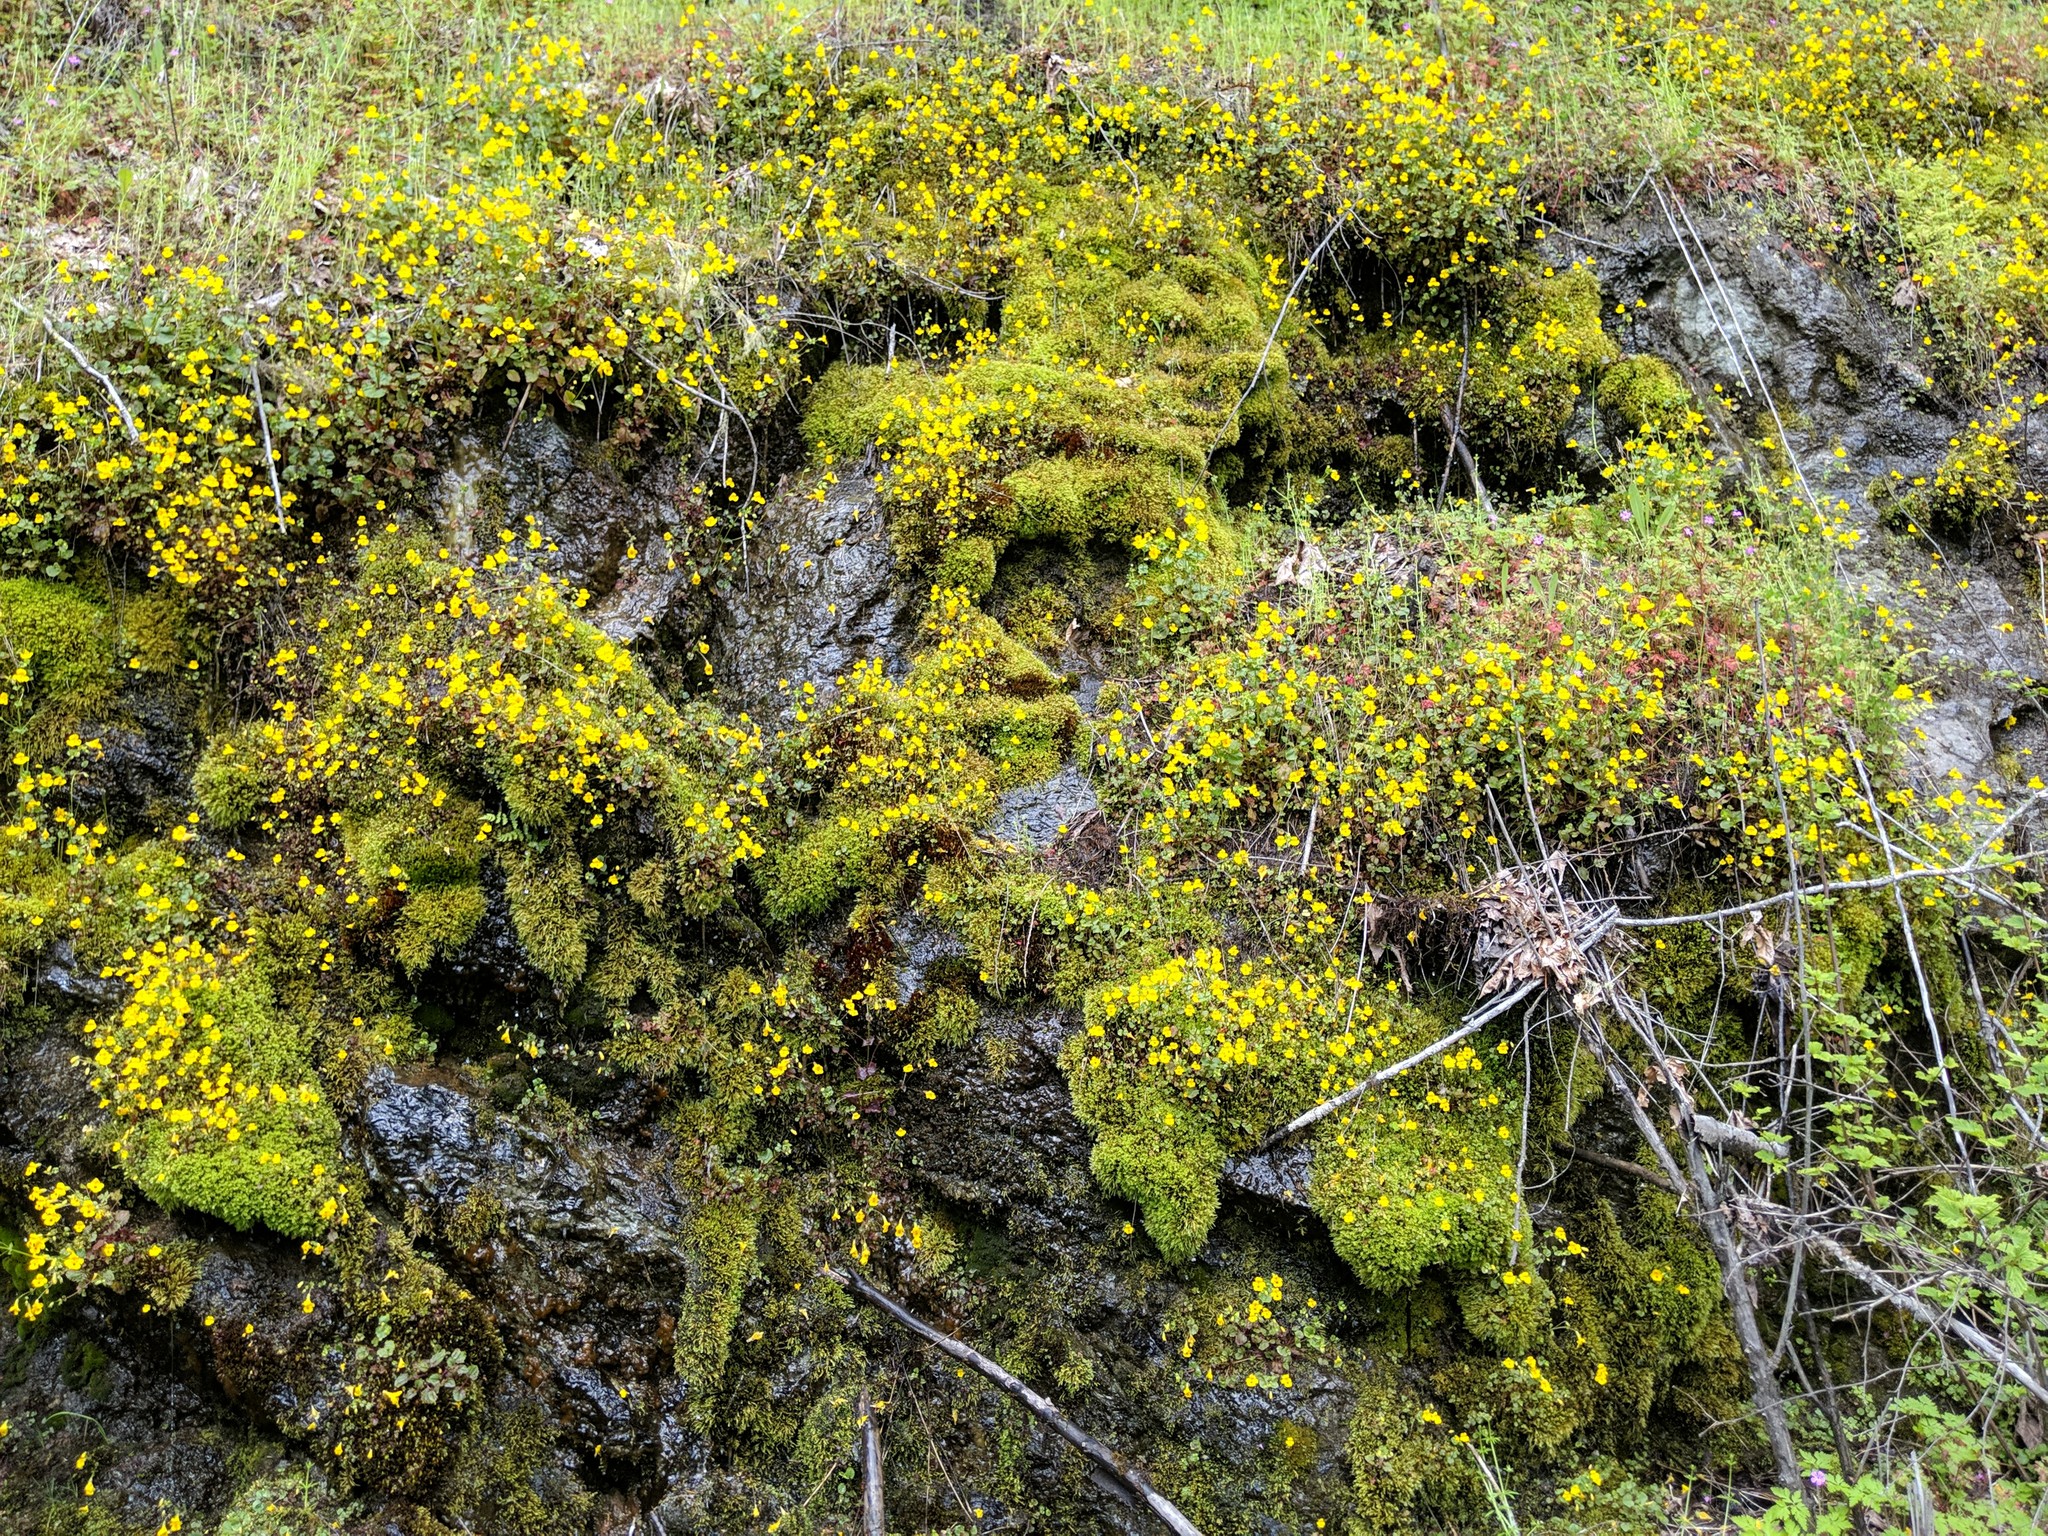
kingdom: Plantae
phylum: Tracheophyta
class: Magnoliopsida
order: Lamiales
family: Phrymaceae
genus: Erythranthe
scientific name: Erythranthe nasuta
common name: Sooke monkeyflower
